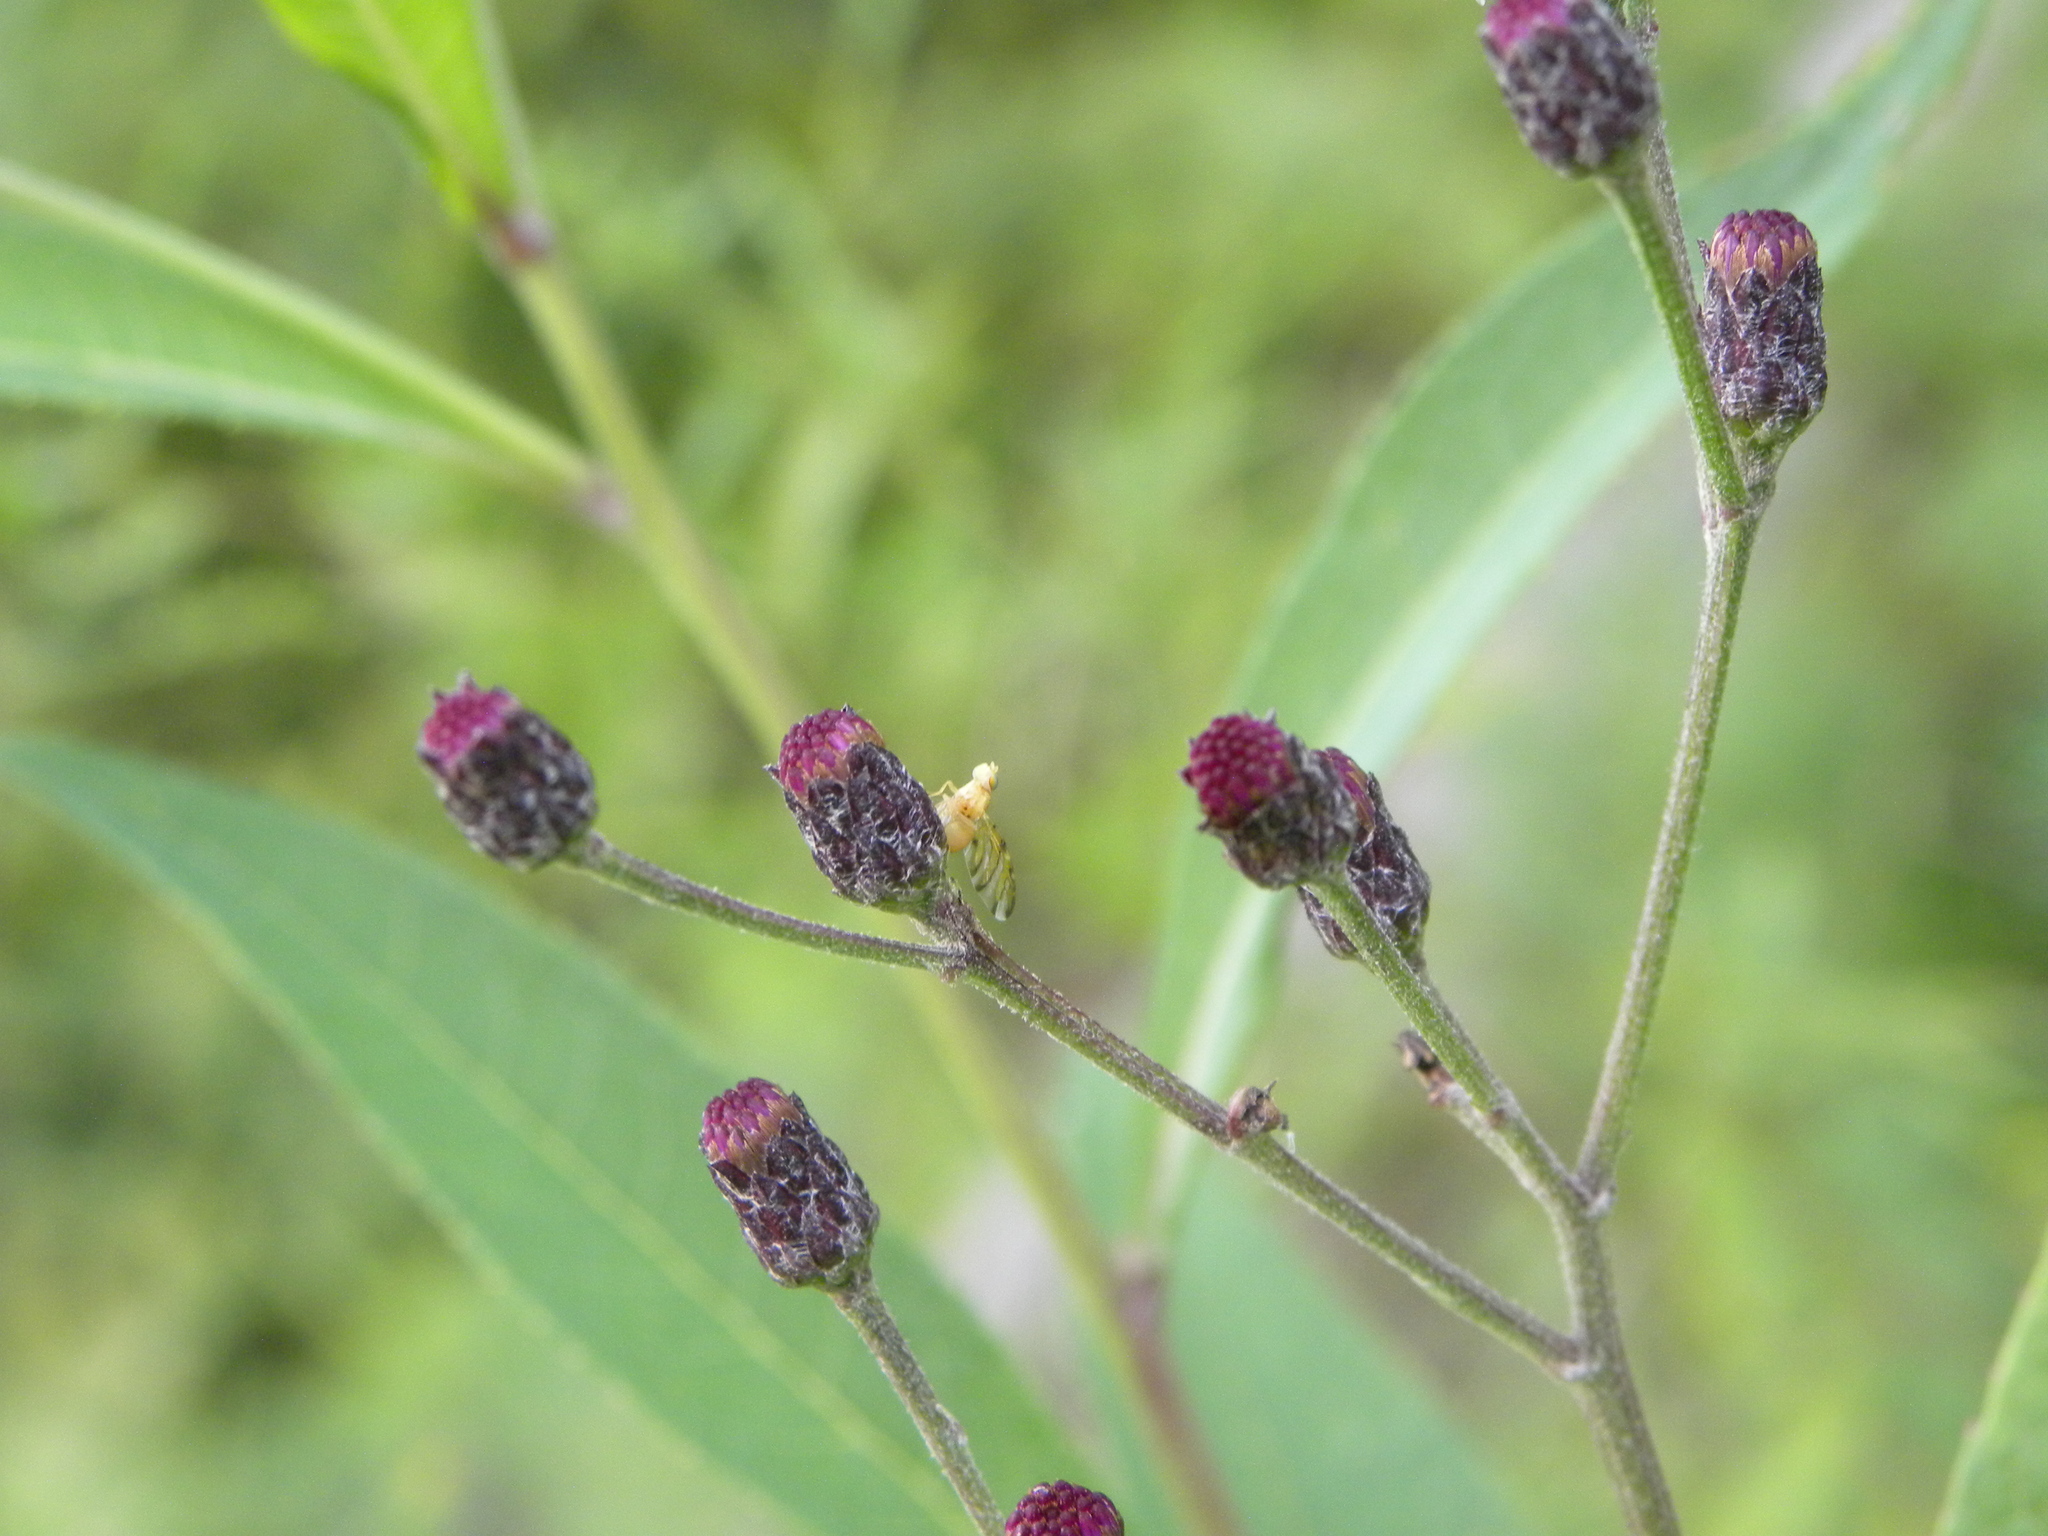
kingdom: Animalia
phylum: Arthropoda
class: Insecta
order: Diptera
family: Tephritidae
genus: Tomoplagia
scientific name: Tomoplagia obliqua
